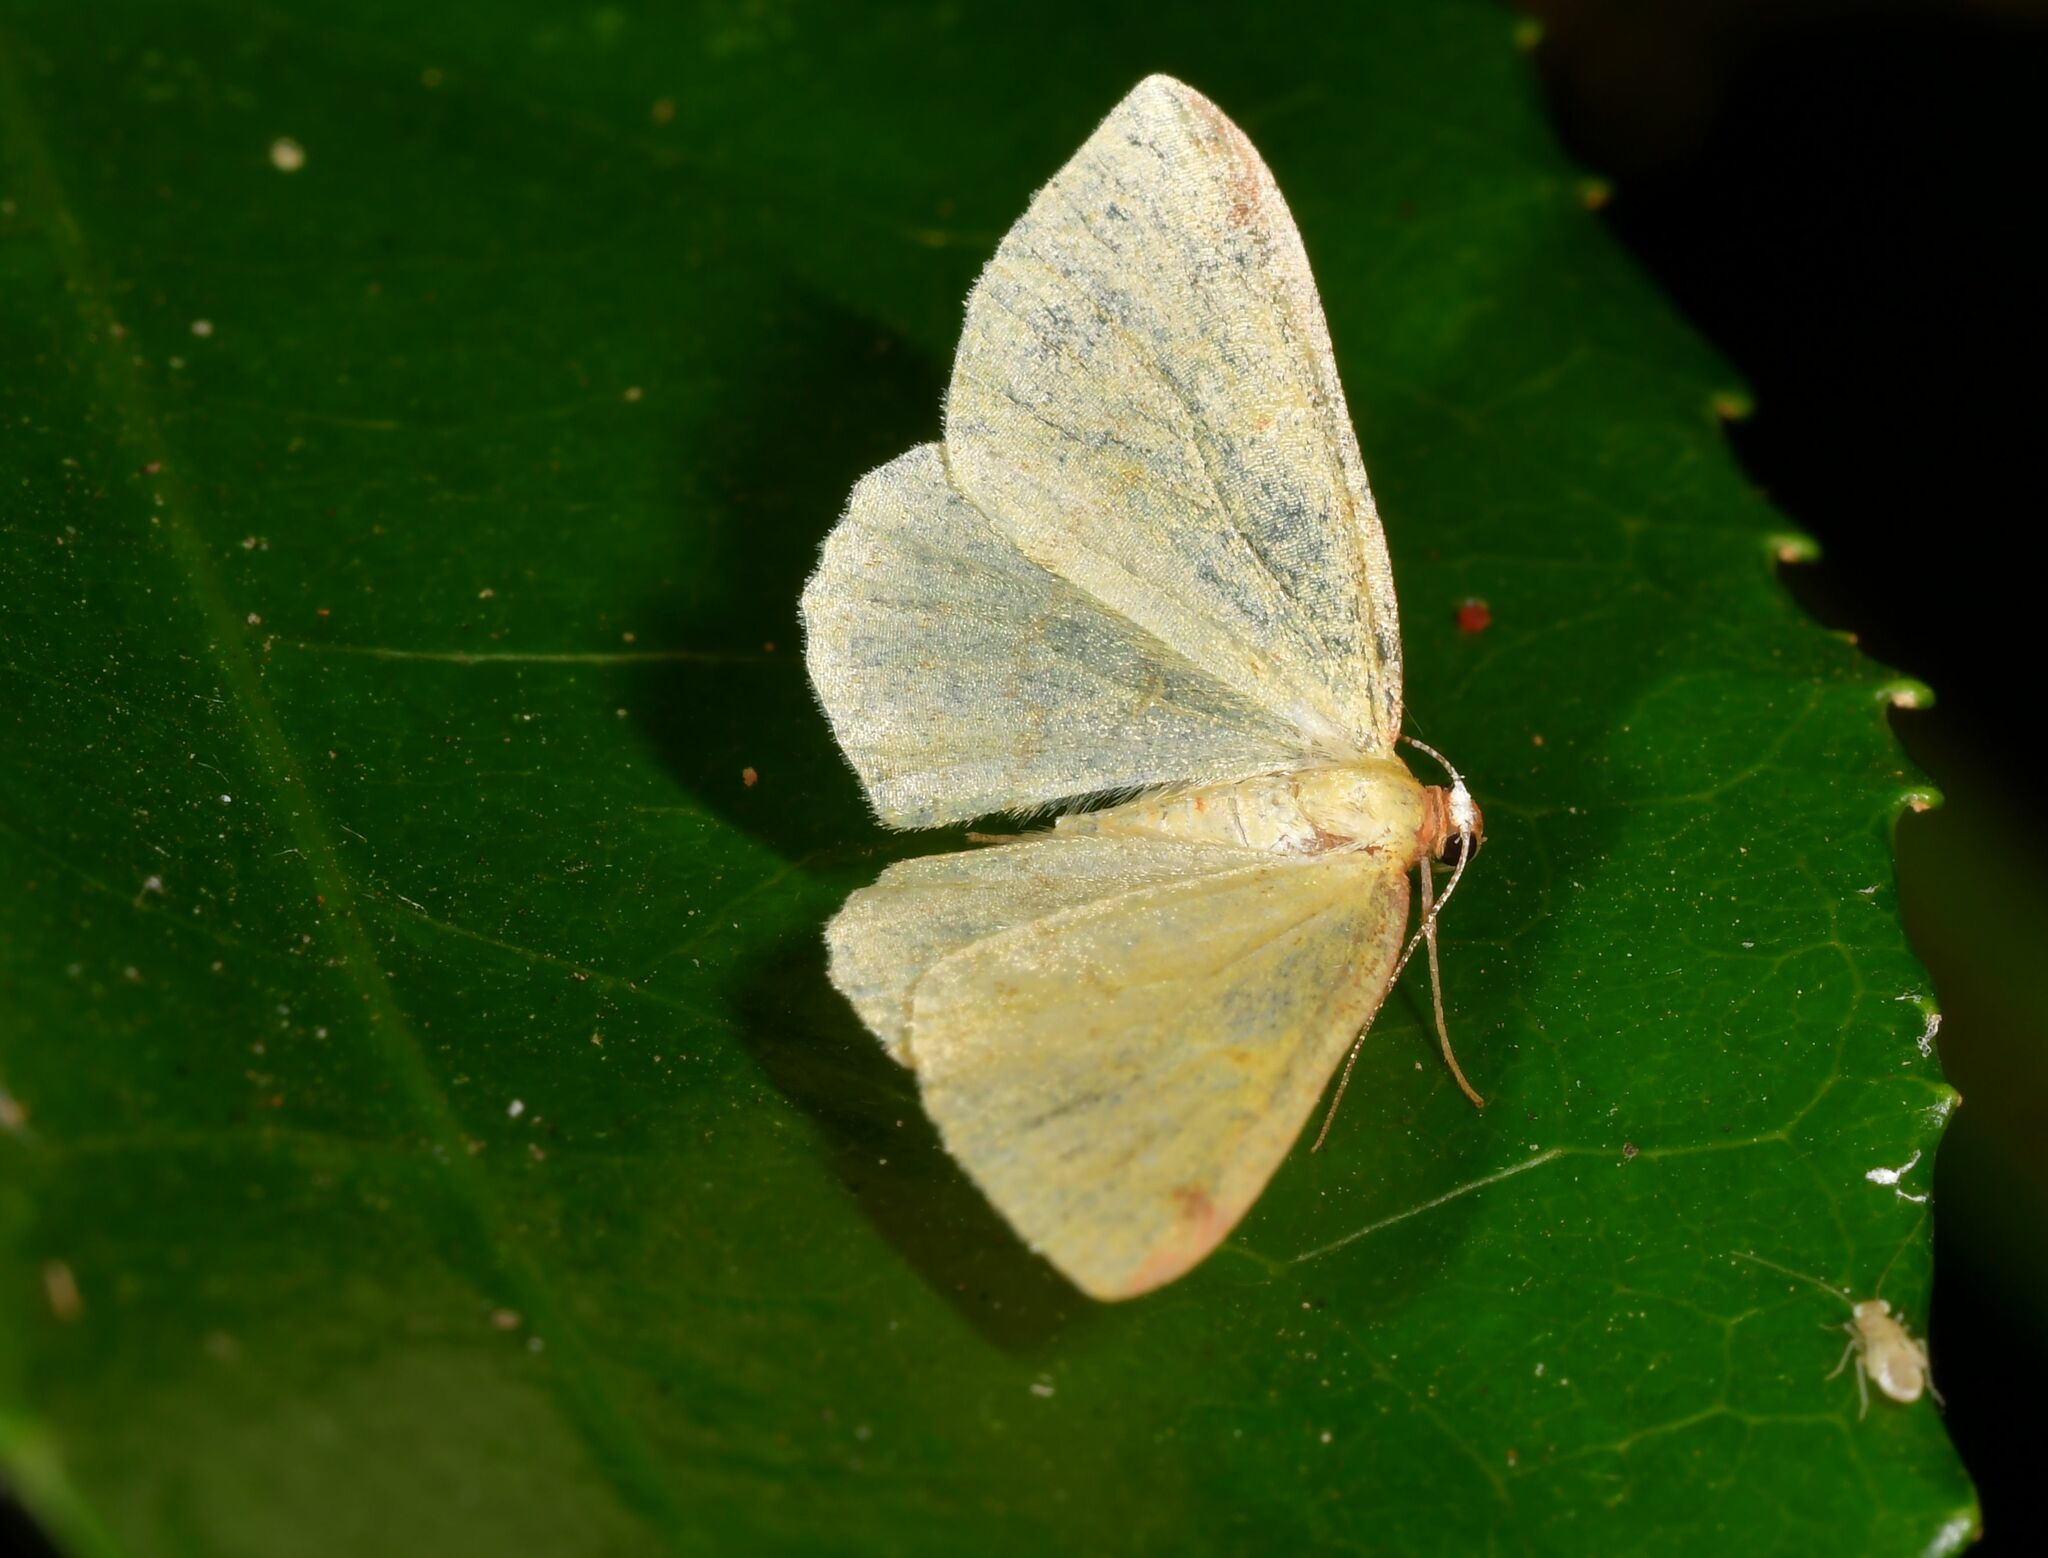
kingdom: Animalia
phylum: Arthropoda
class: Insecta
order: Lepidoptera
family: Geometridae
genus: Epiphryne
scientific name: Epiphryne undosata
